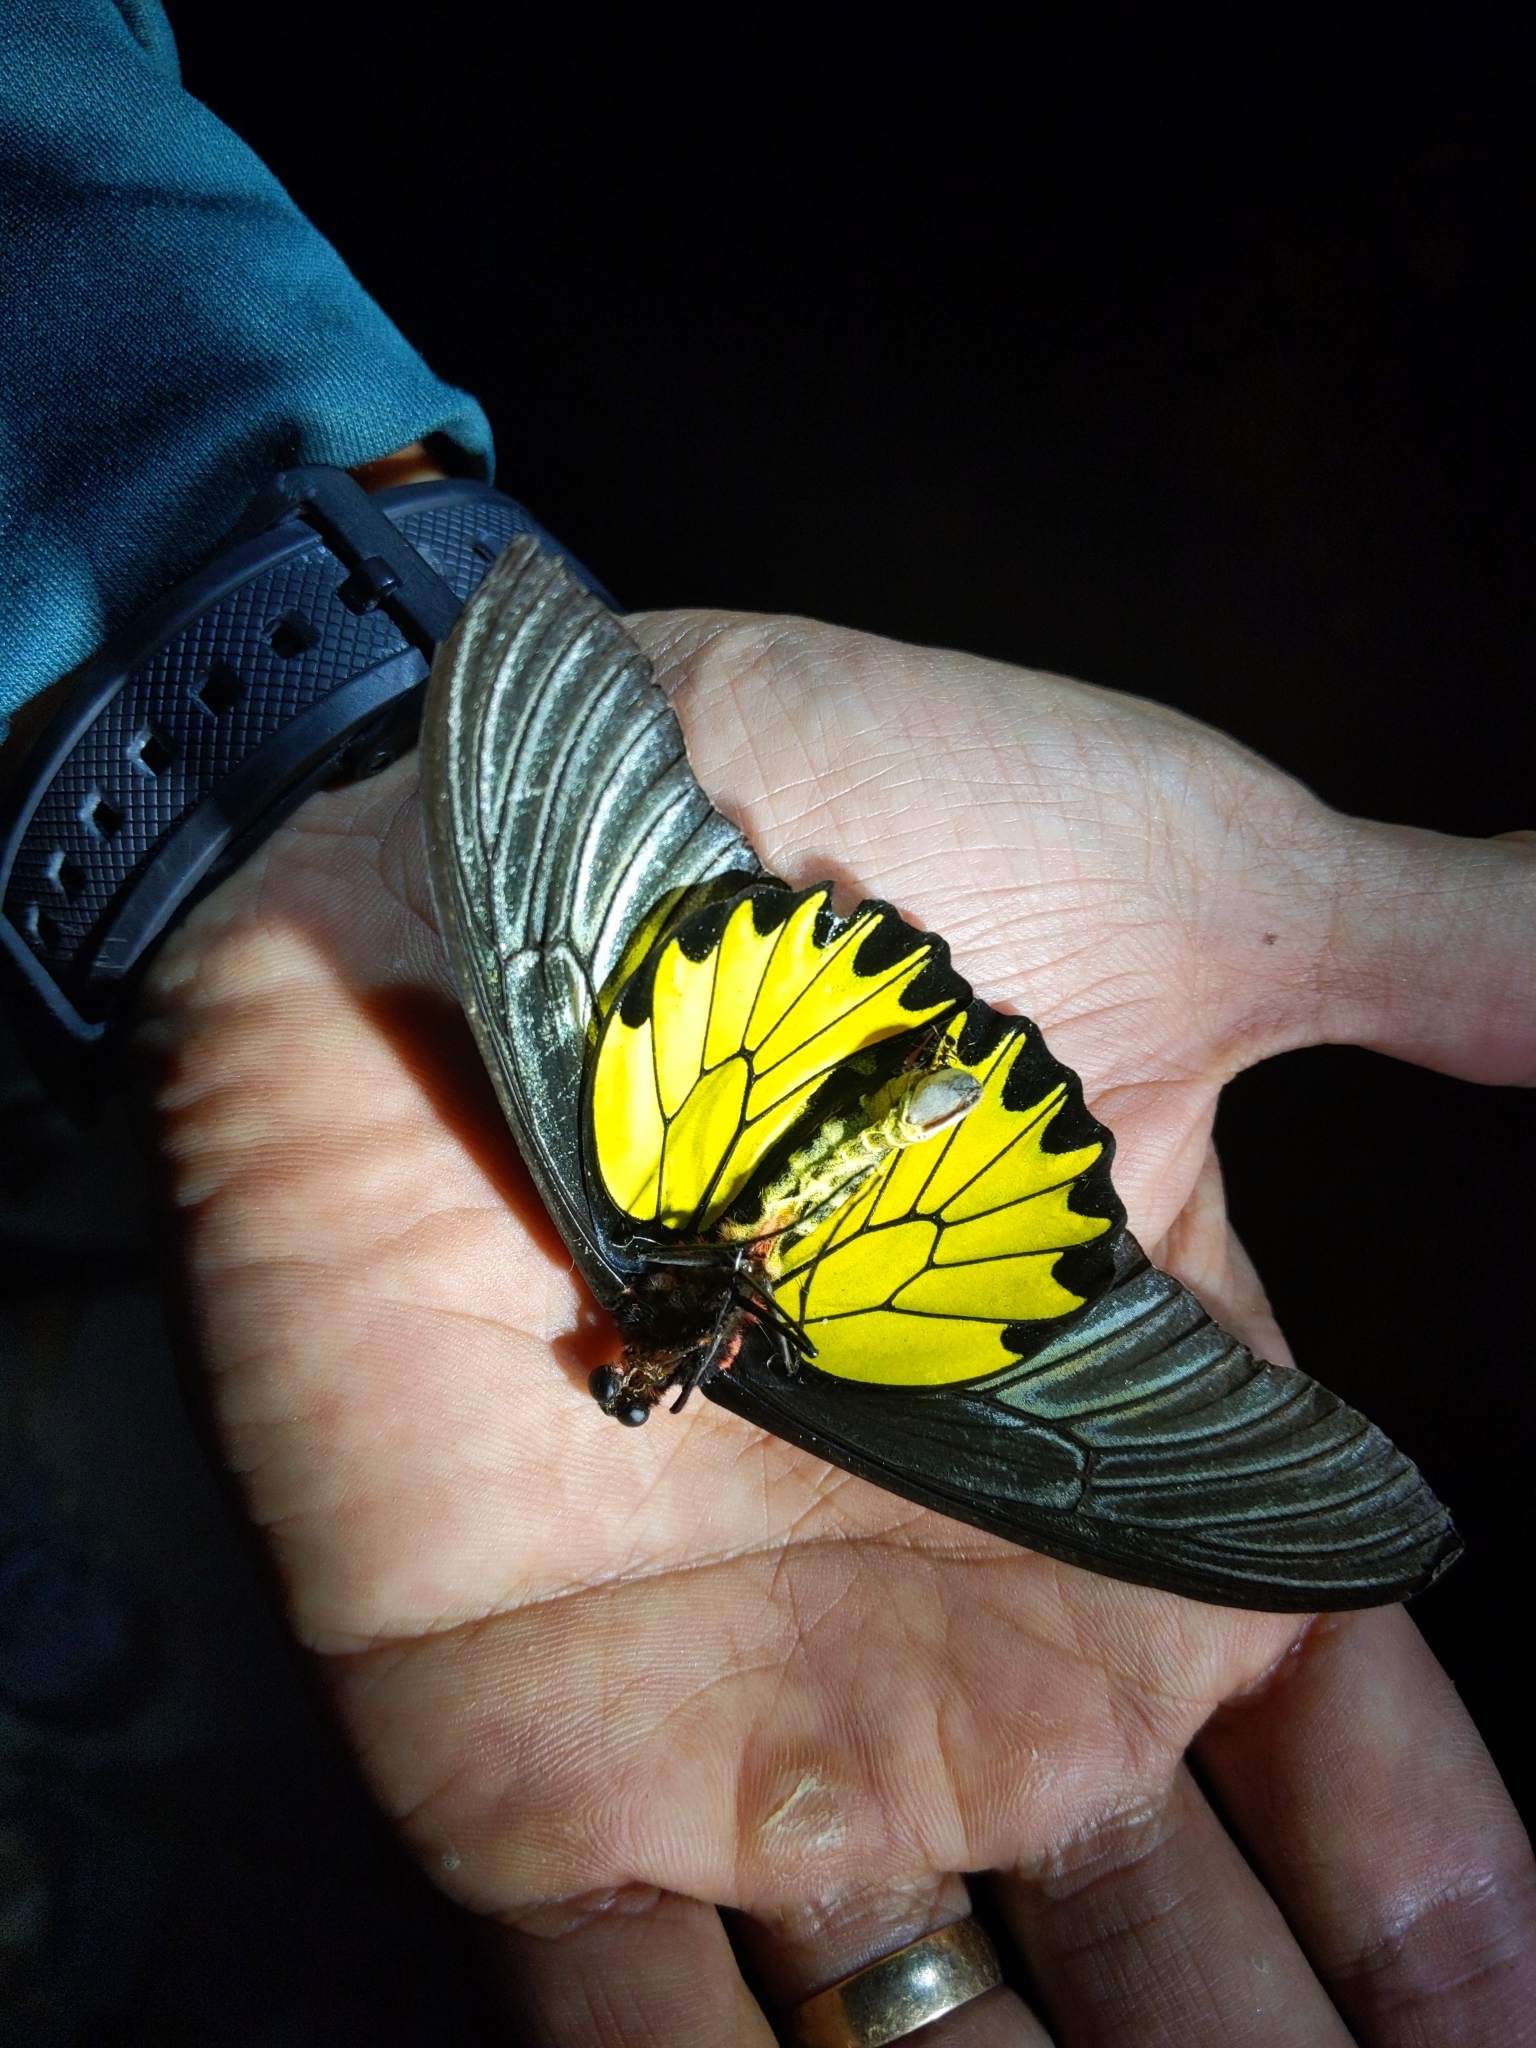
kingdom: Animalia
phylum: Arthropoda
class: Insecta
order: Lepidoptera
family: Papilionidae
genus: Troides
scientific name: Troides aeacus
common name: Golden birdwing
